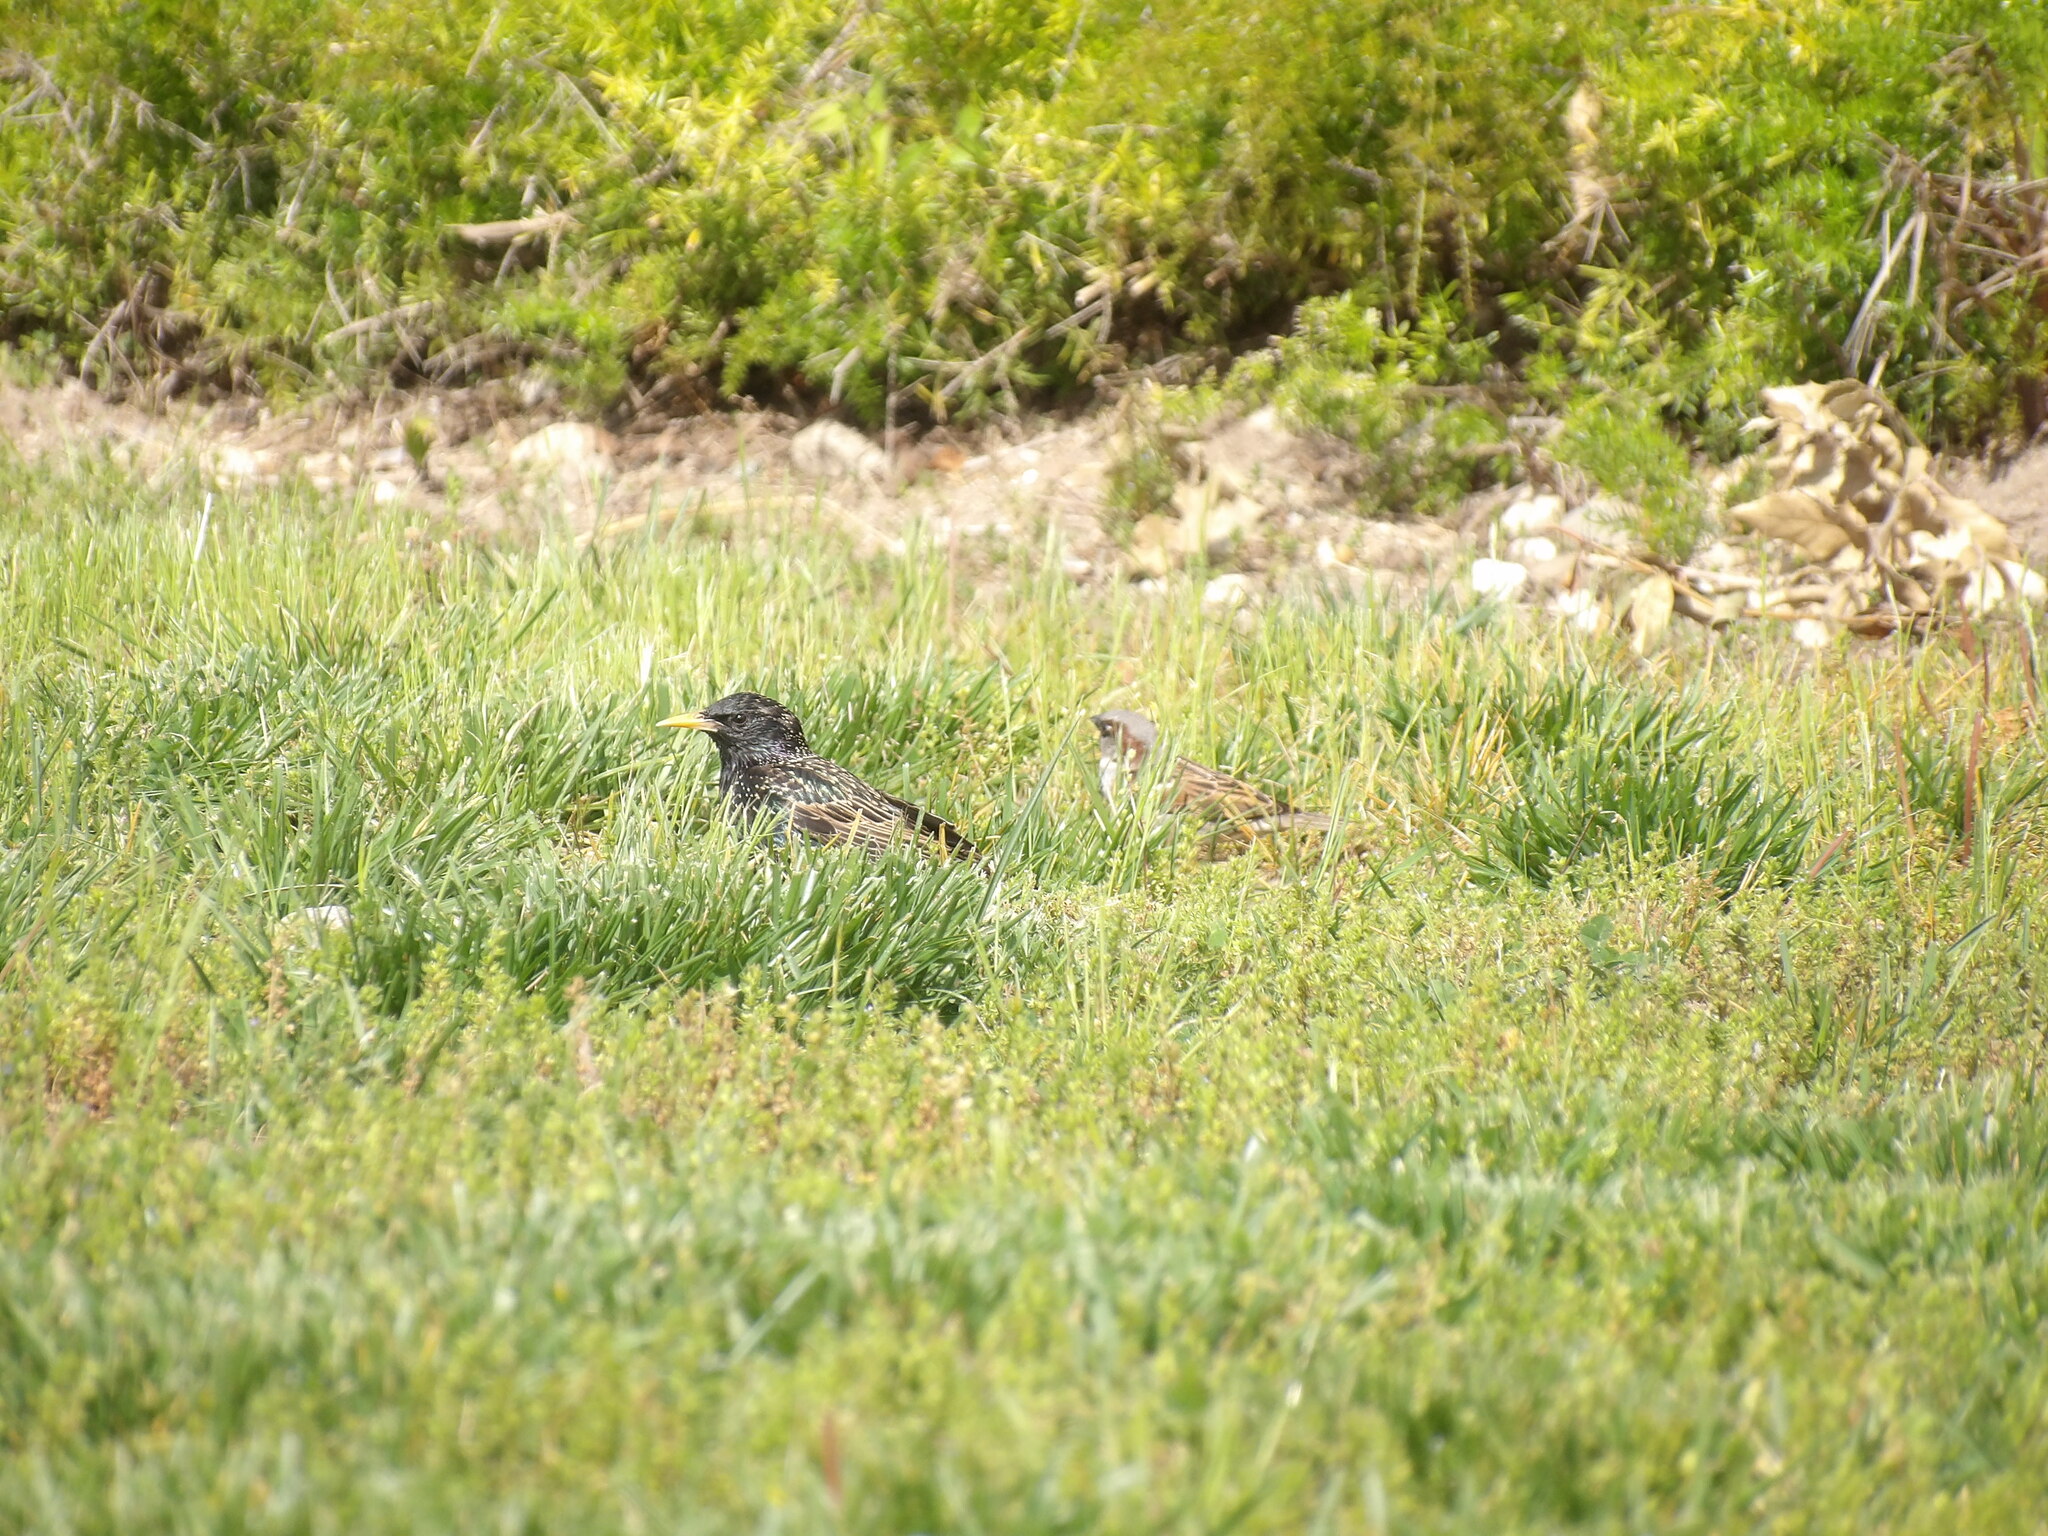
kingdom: Animalia
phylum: Chordata
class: Aves
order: Passeriformes
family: Passeridae
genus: Passer
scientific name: Passer domesticus
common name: House sparrow
